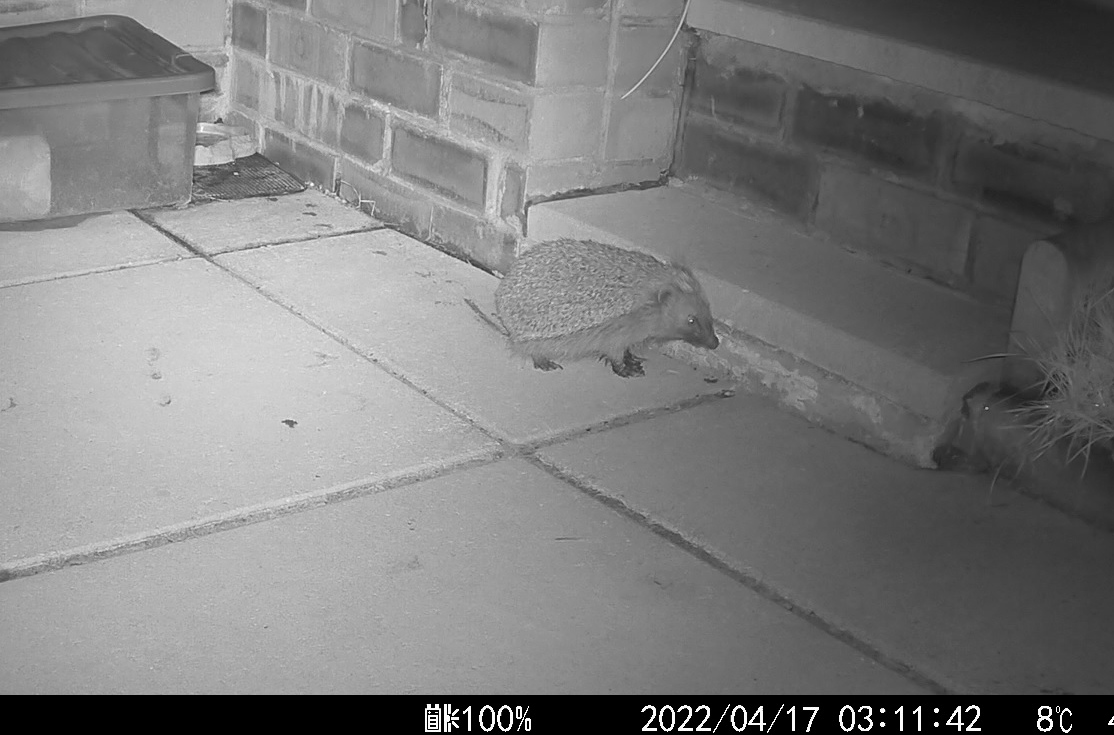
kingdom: Animalia
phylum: Chordata
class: Mammalia
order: Erinaceomorpha
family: Erinaceidae
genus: Erinaceus
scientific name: Erinaceus europaeus
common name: West european hedgehog
